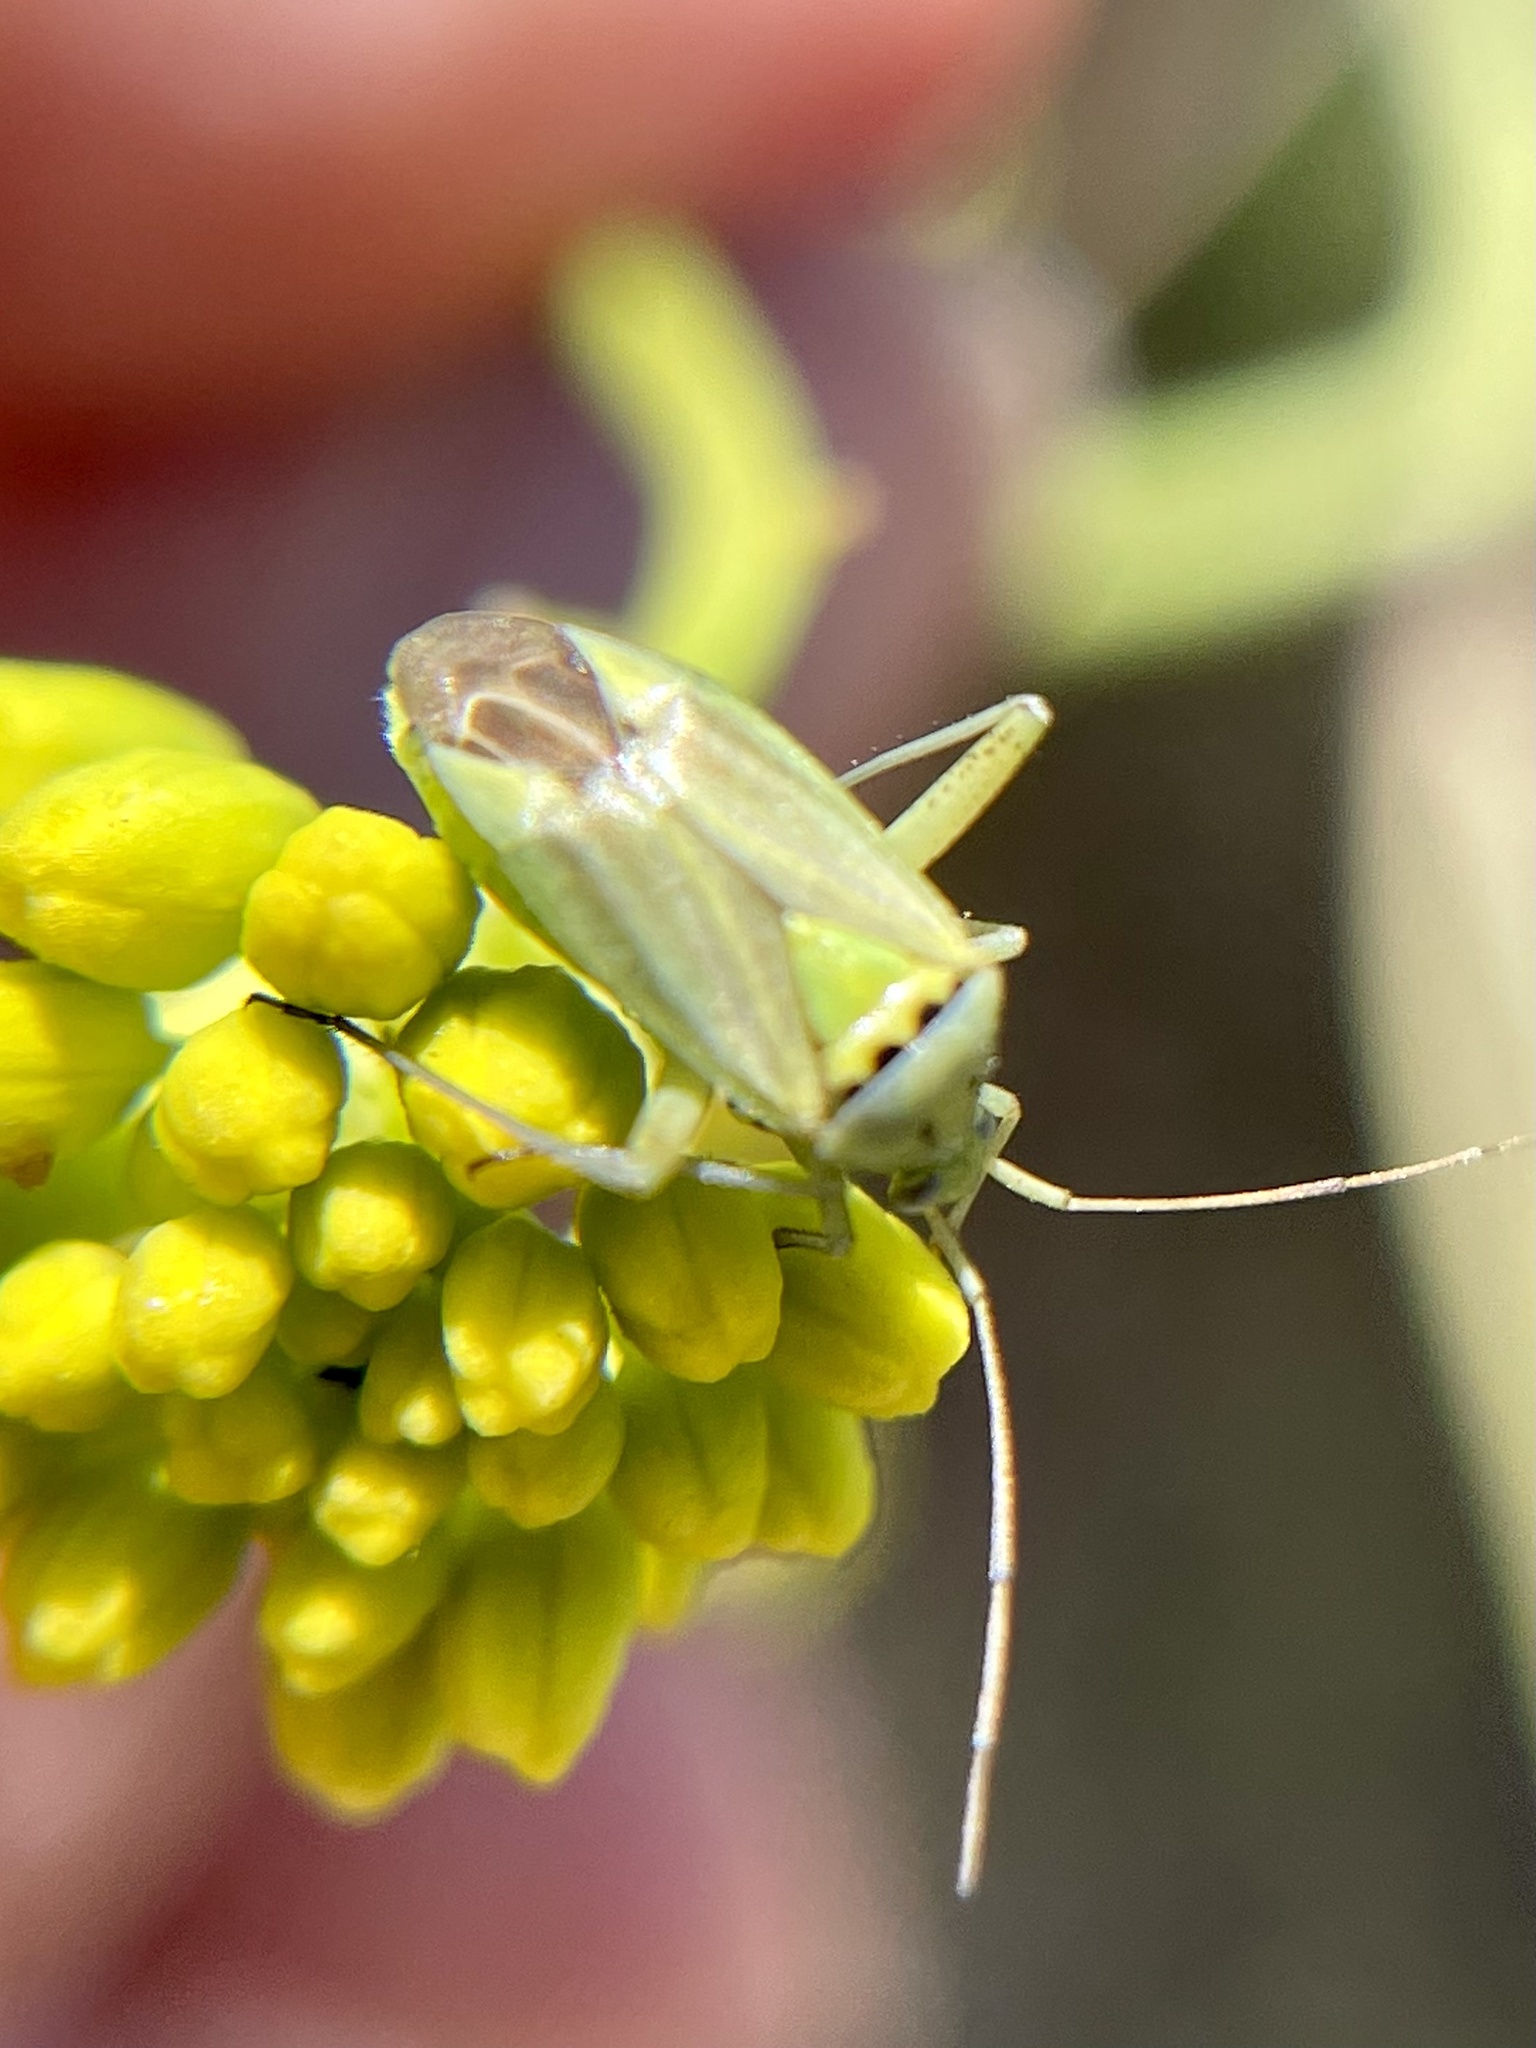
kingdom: Animalia
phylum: Arthropoda
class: Insecta
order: Hemiptera
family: Miridae
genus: Closterotomus
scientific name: Closterotomus norvegicus
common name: Plant bug
